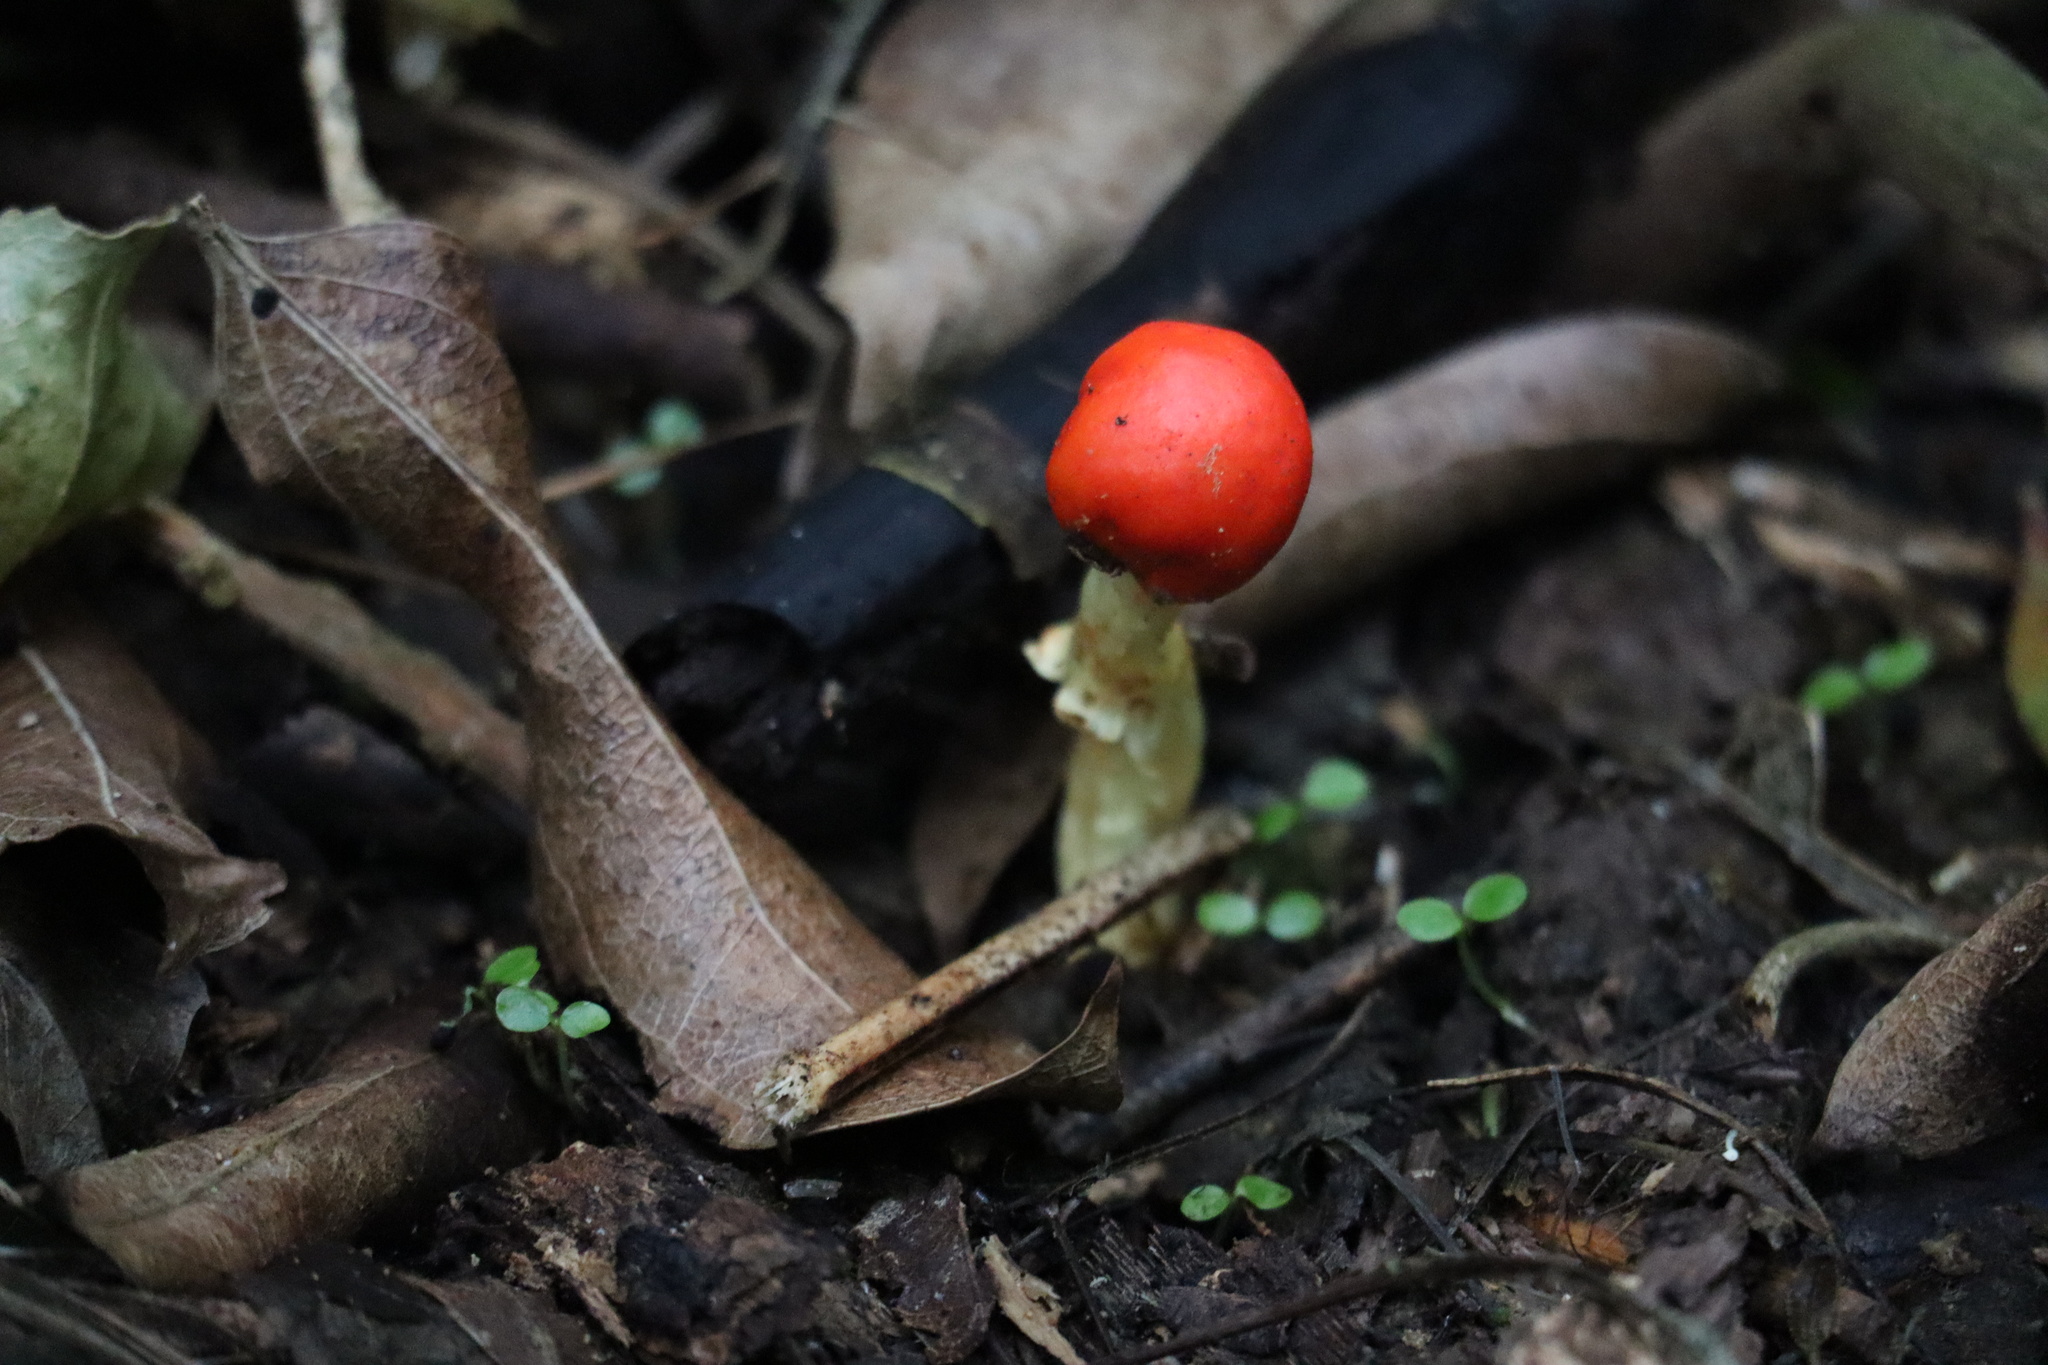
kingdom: Fungi
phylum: Basidiomycota
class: Agaricomycetes
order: Agaricales
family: Strophariaceae
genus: Leratiomyces
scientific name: Leratiomyces erythrocephalus
